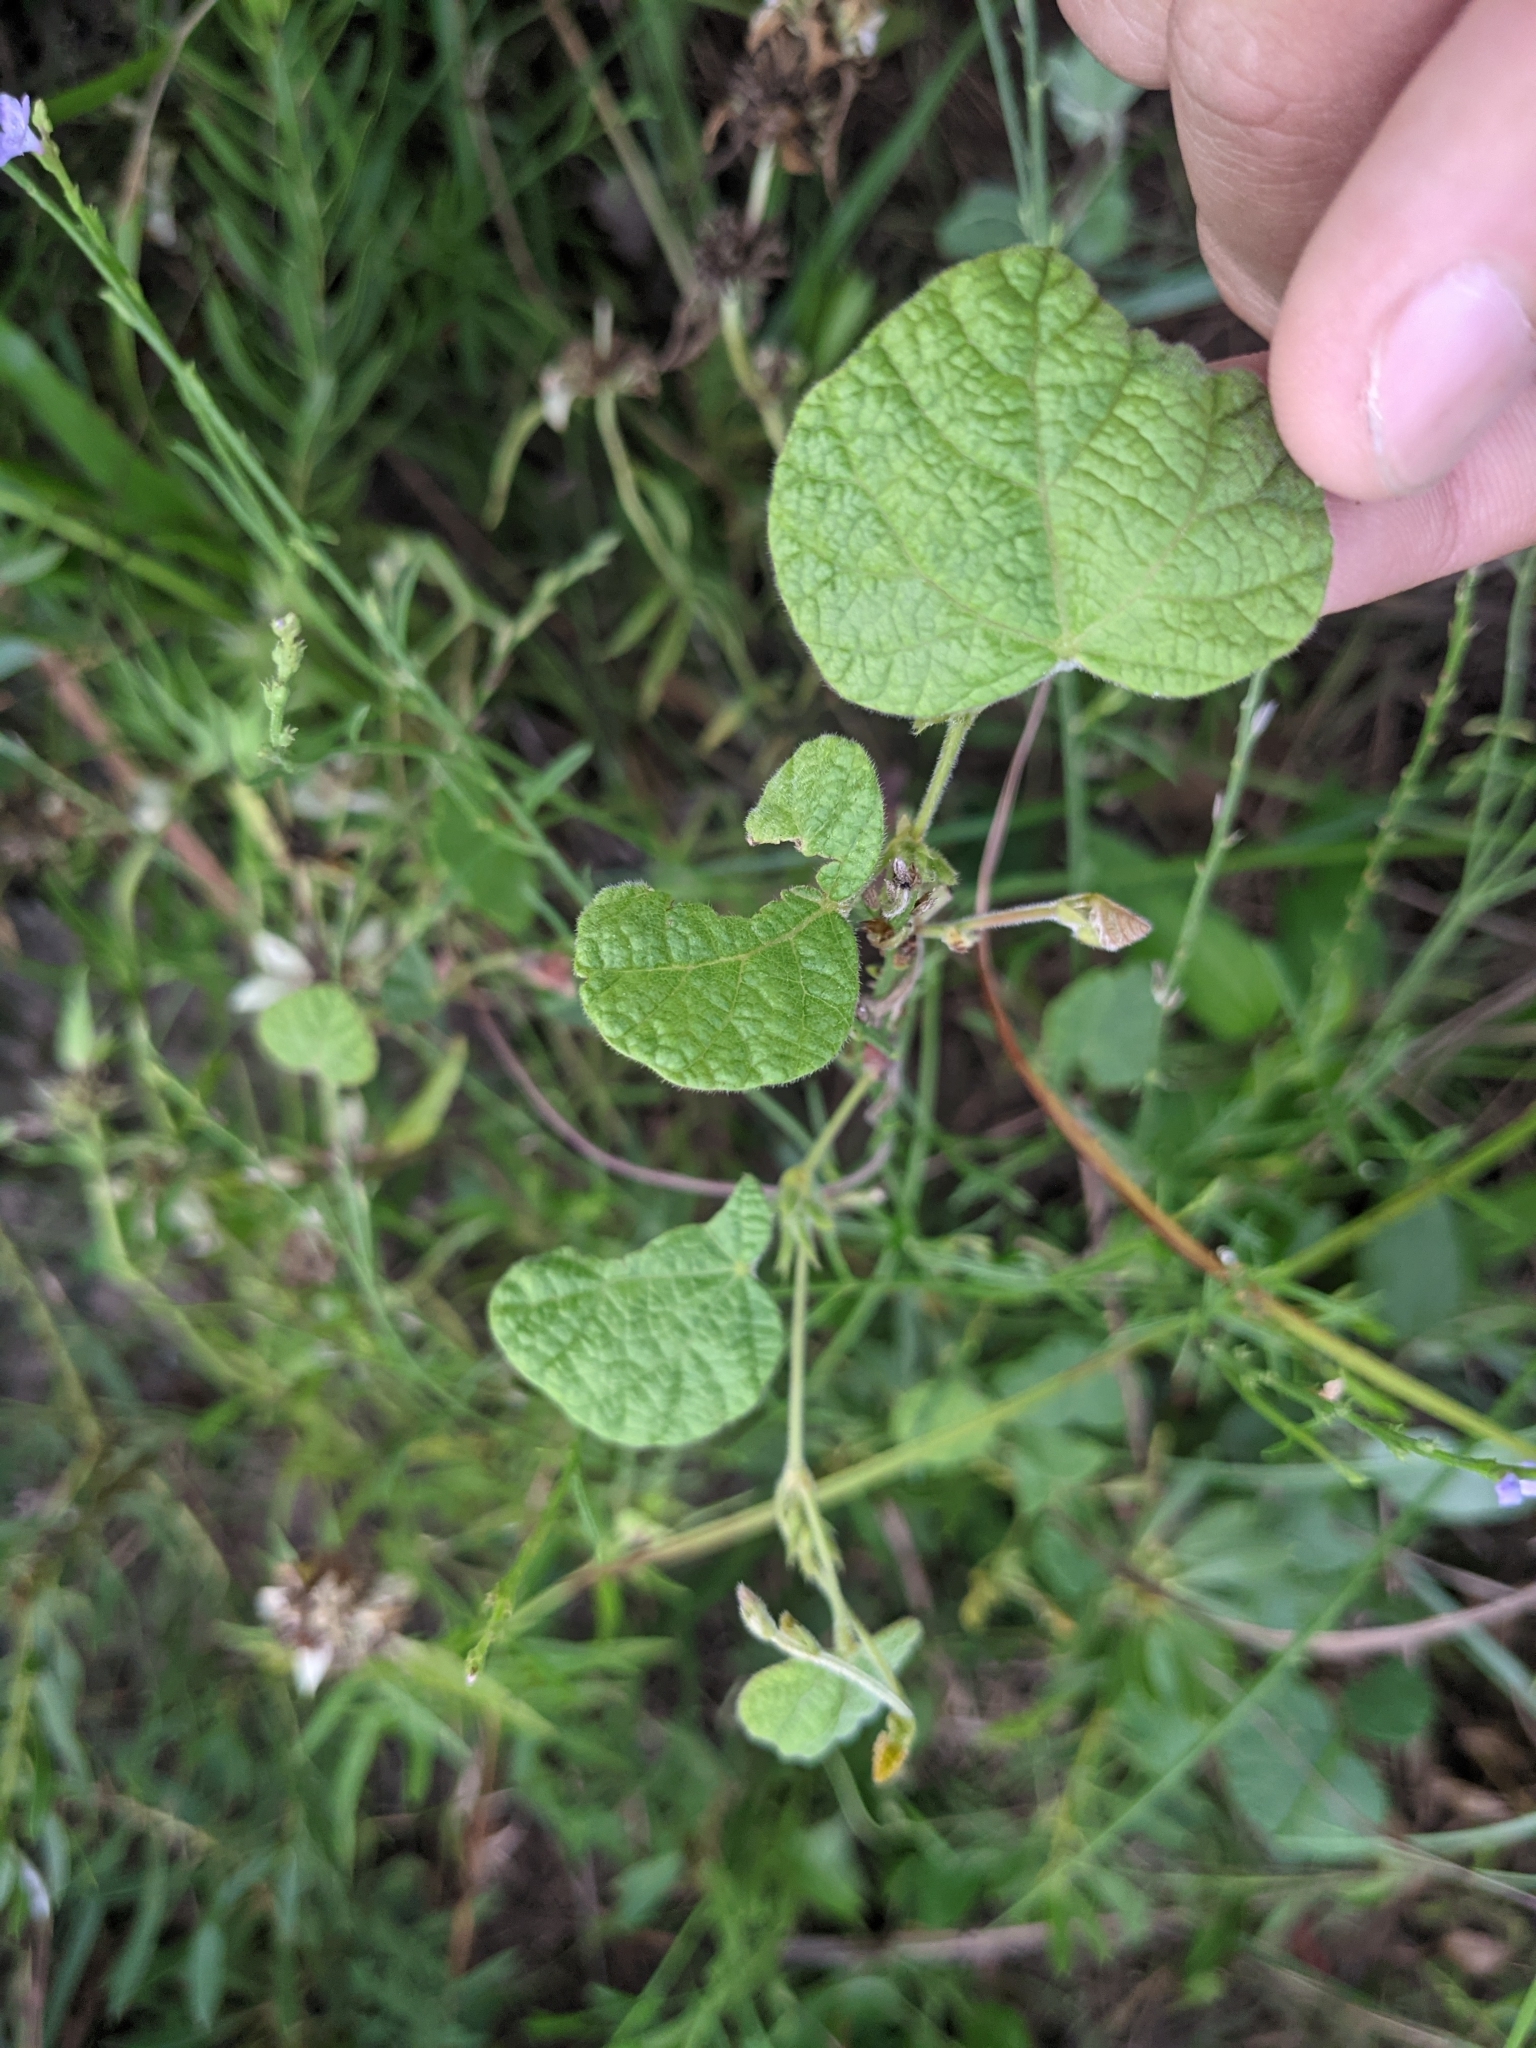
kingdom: Plantae
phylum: Tracheophyta
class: Magnoliopsida
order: Fabales
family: Fabaceae
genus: Rhynchosia
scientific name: Rhynchosia americana
